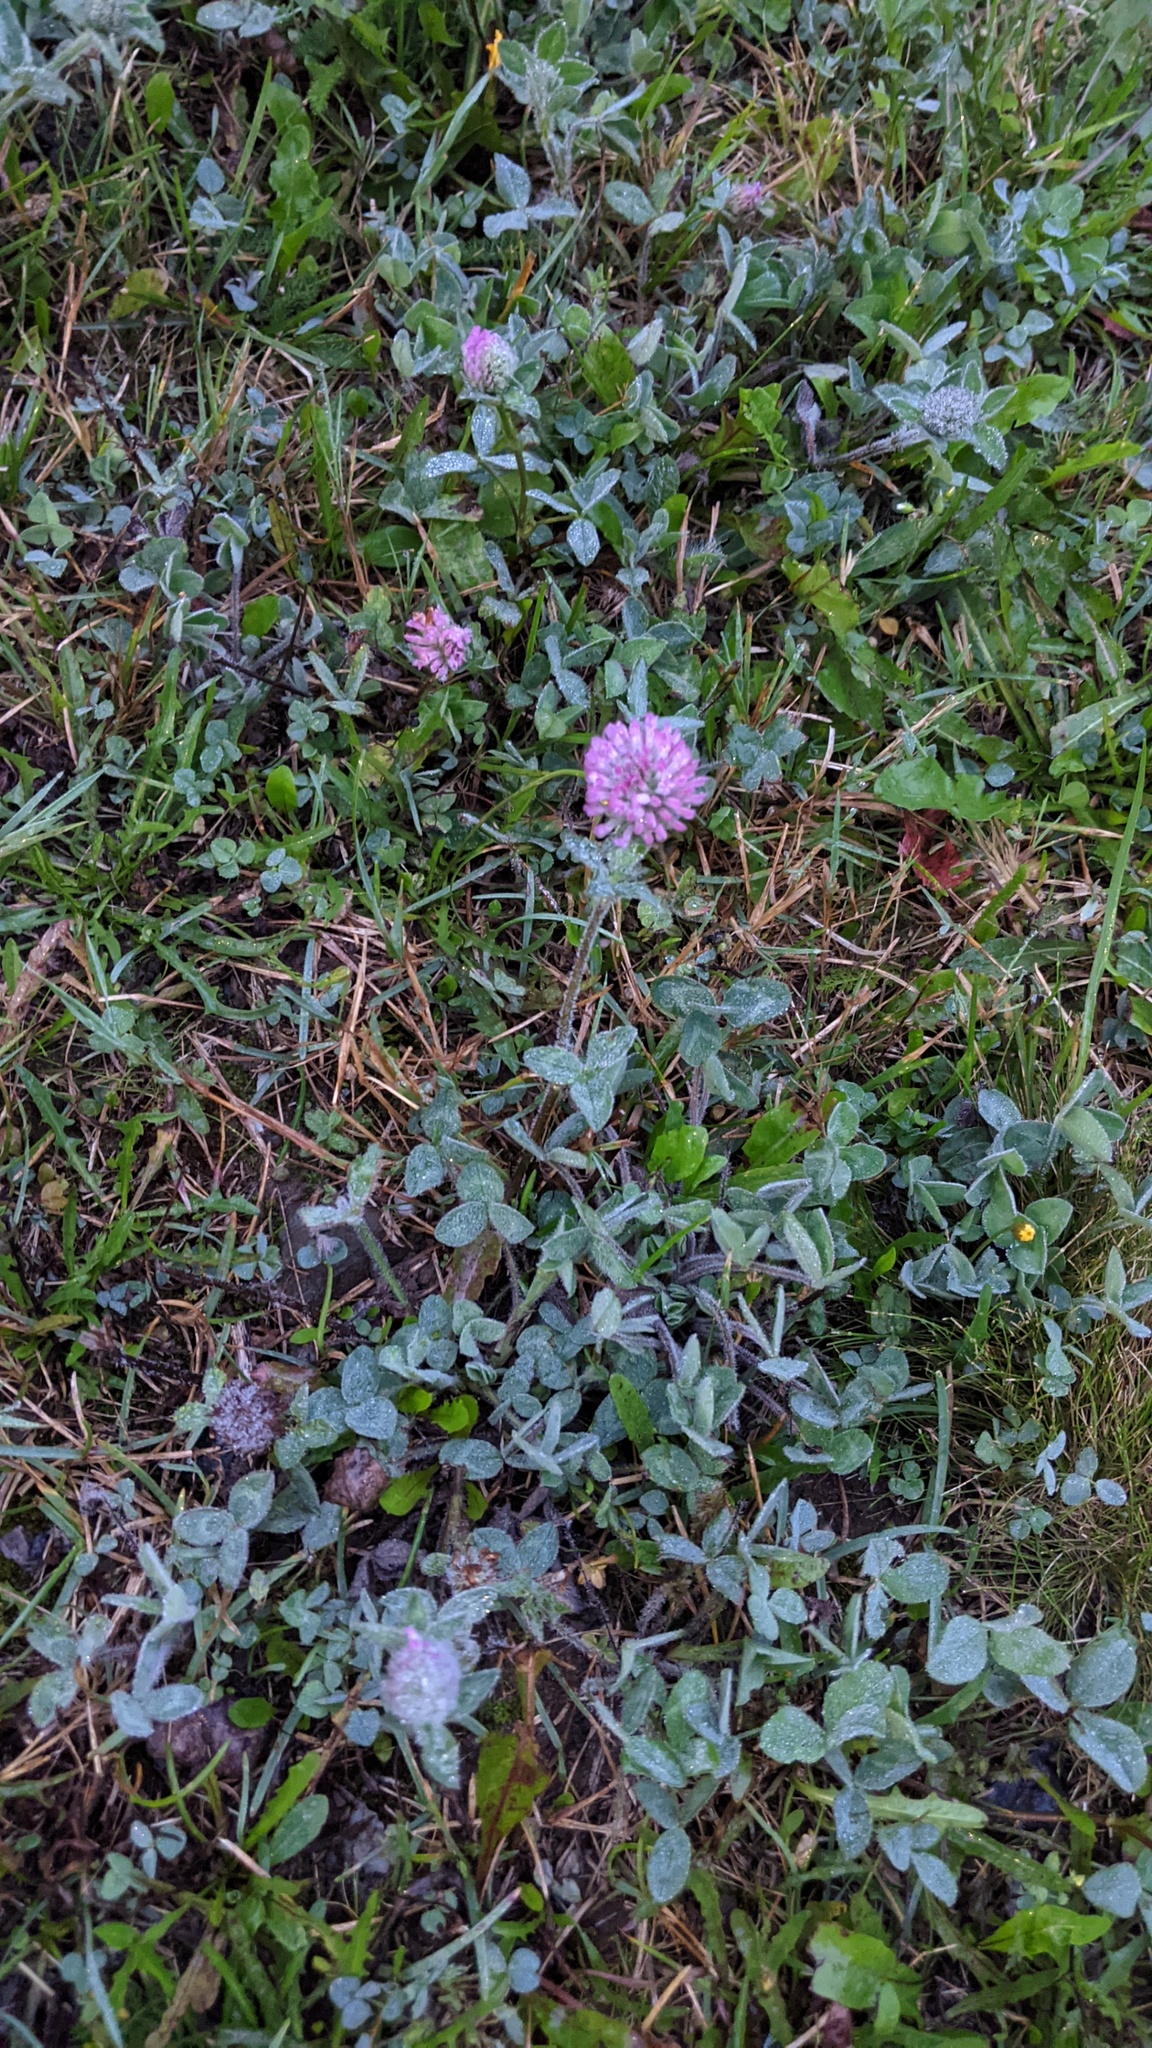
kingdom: Plantae
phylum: Tracheophyta
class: Magnoliopsida
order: Fabales
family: Fabaceae
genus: Trifolium
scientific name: Trifolium pratense
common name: Red clover
